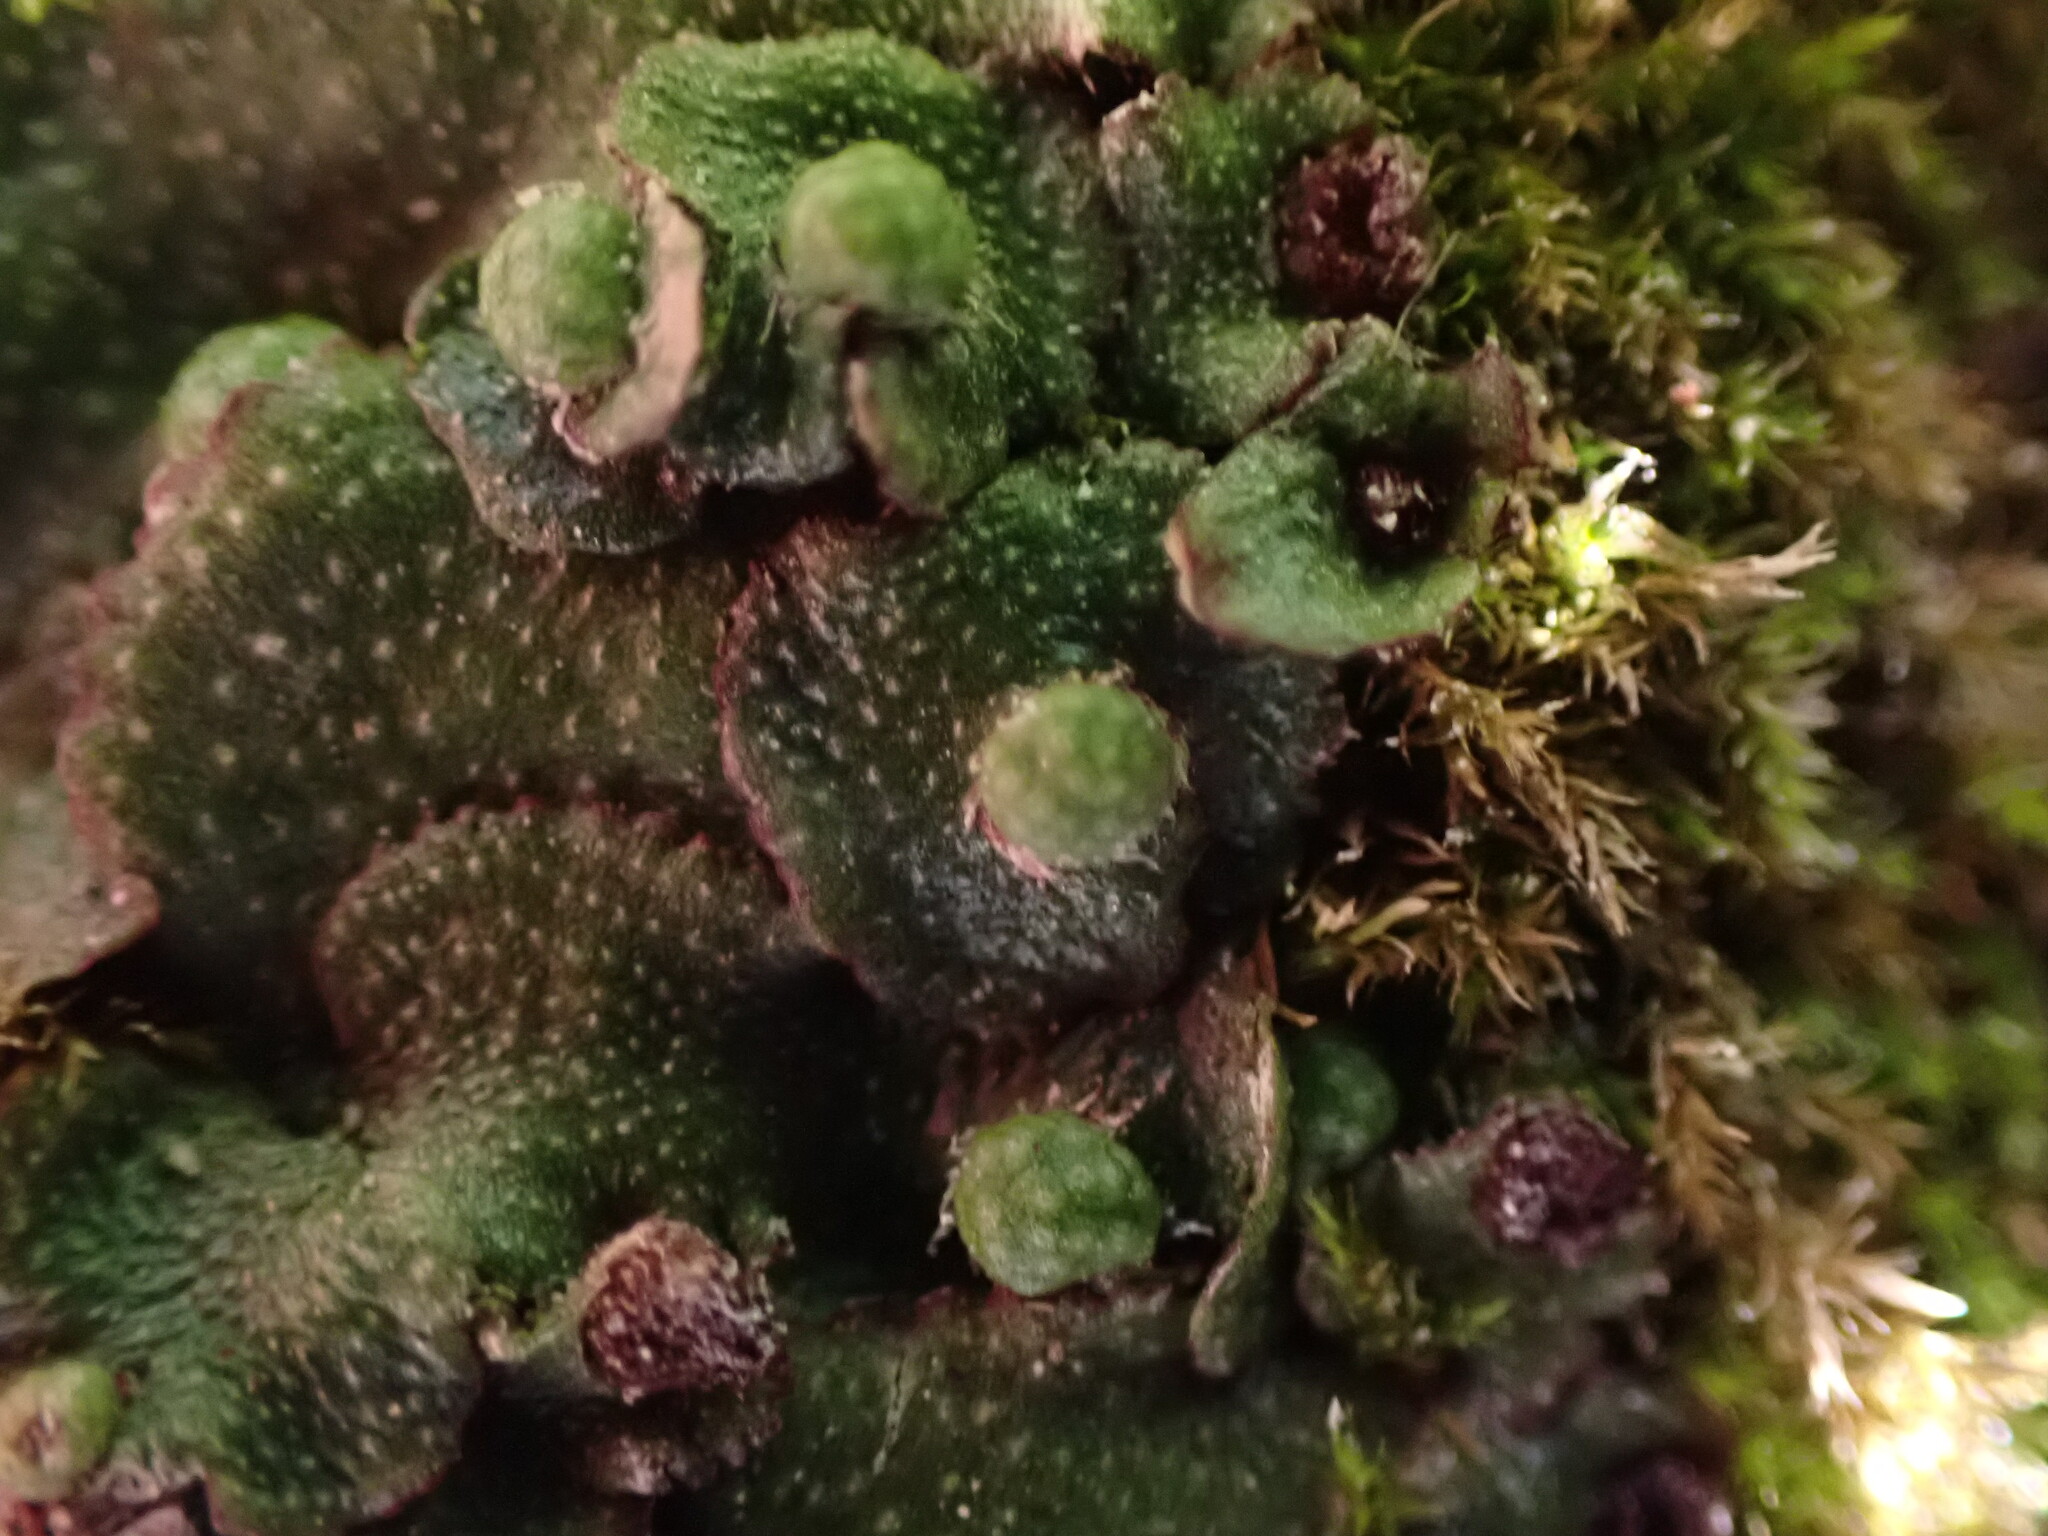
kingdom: Plantae
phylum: Marchantiophyta
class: Marchantiopsida
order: Marchantiales
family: Aytoniaceae
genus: Reboulia
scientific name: Reboulia hemisphaerica
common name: Purple-margined liverwort
